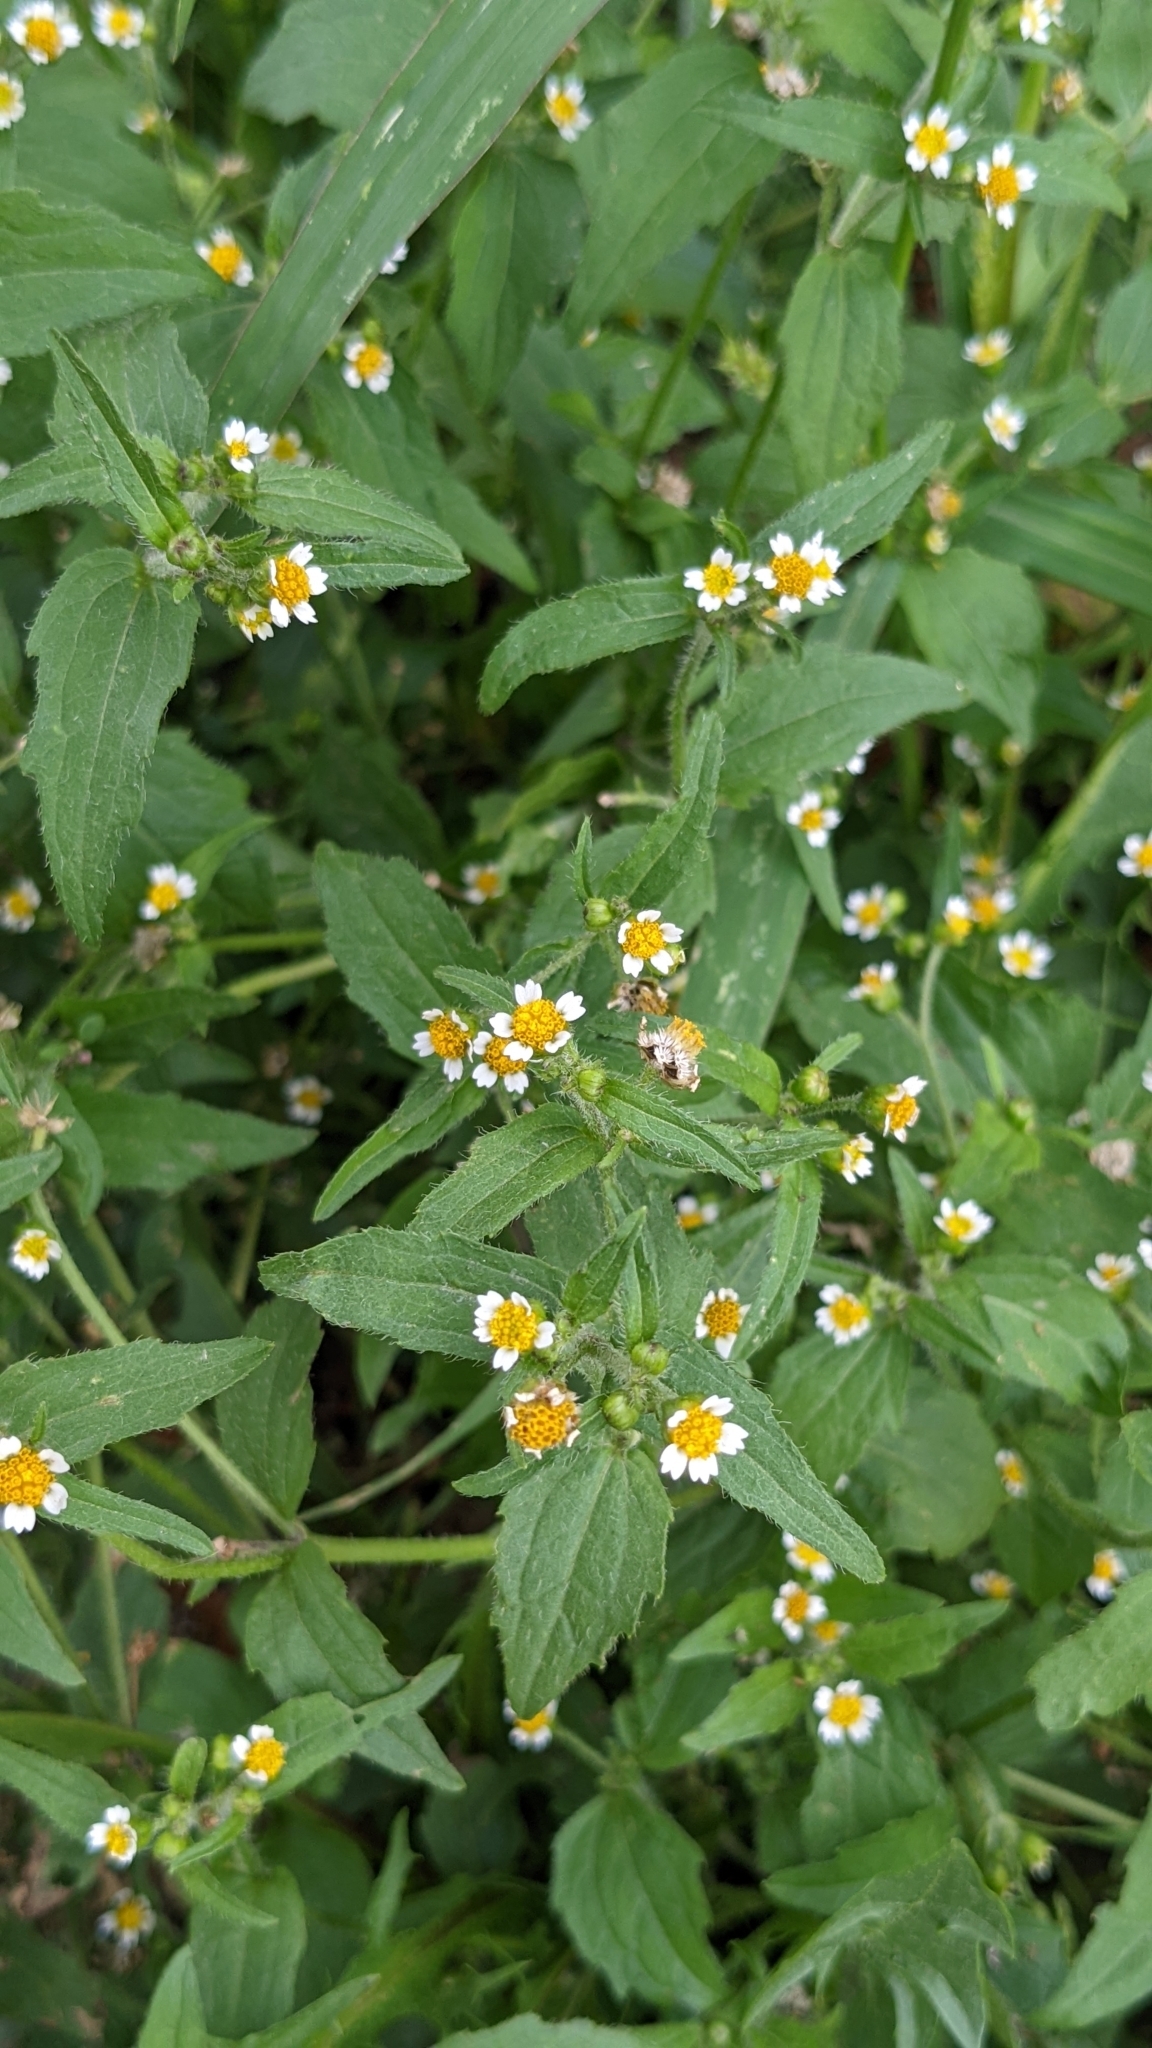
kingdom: Plantae
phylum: Tracheophyta
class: Magnoliopsida
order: Asterales
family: Asteraceae
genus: Galinsoga
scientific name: Galinsoga quadriradiata
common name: Shaggy soldier
